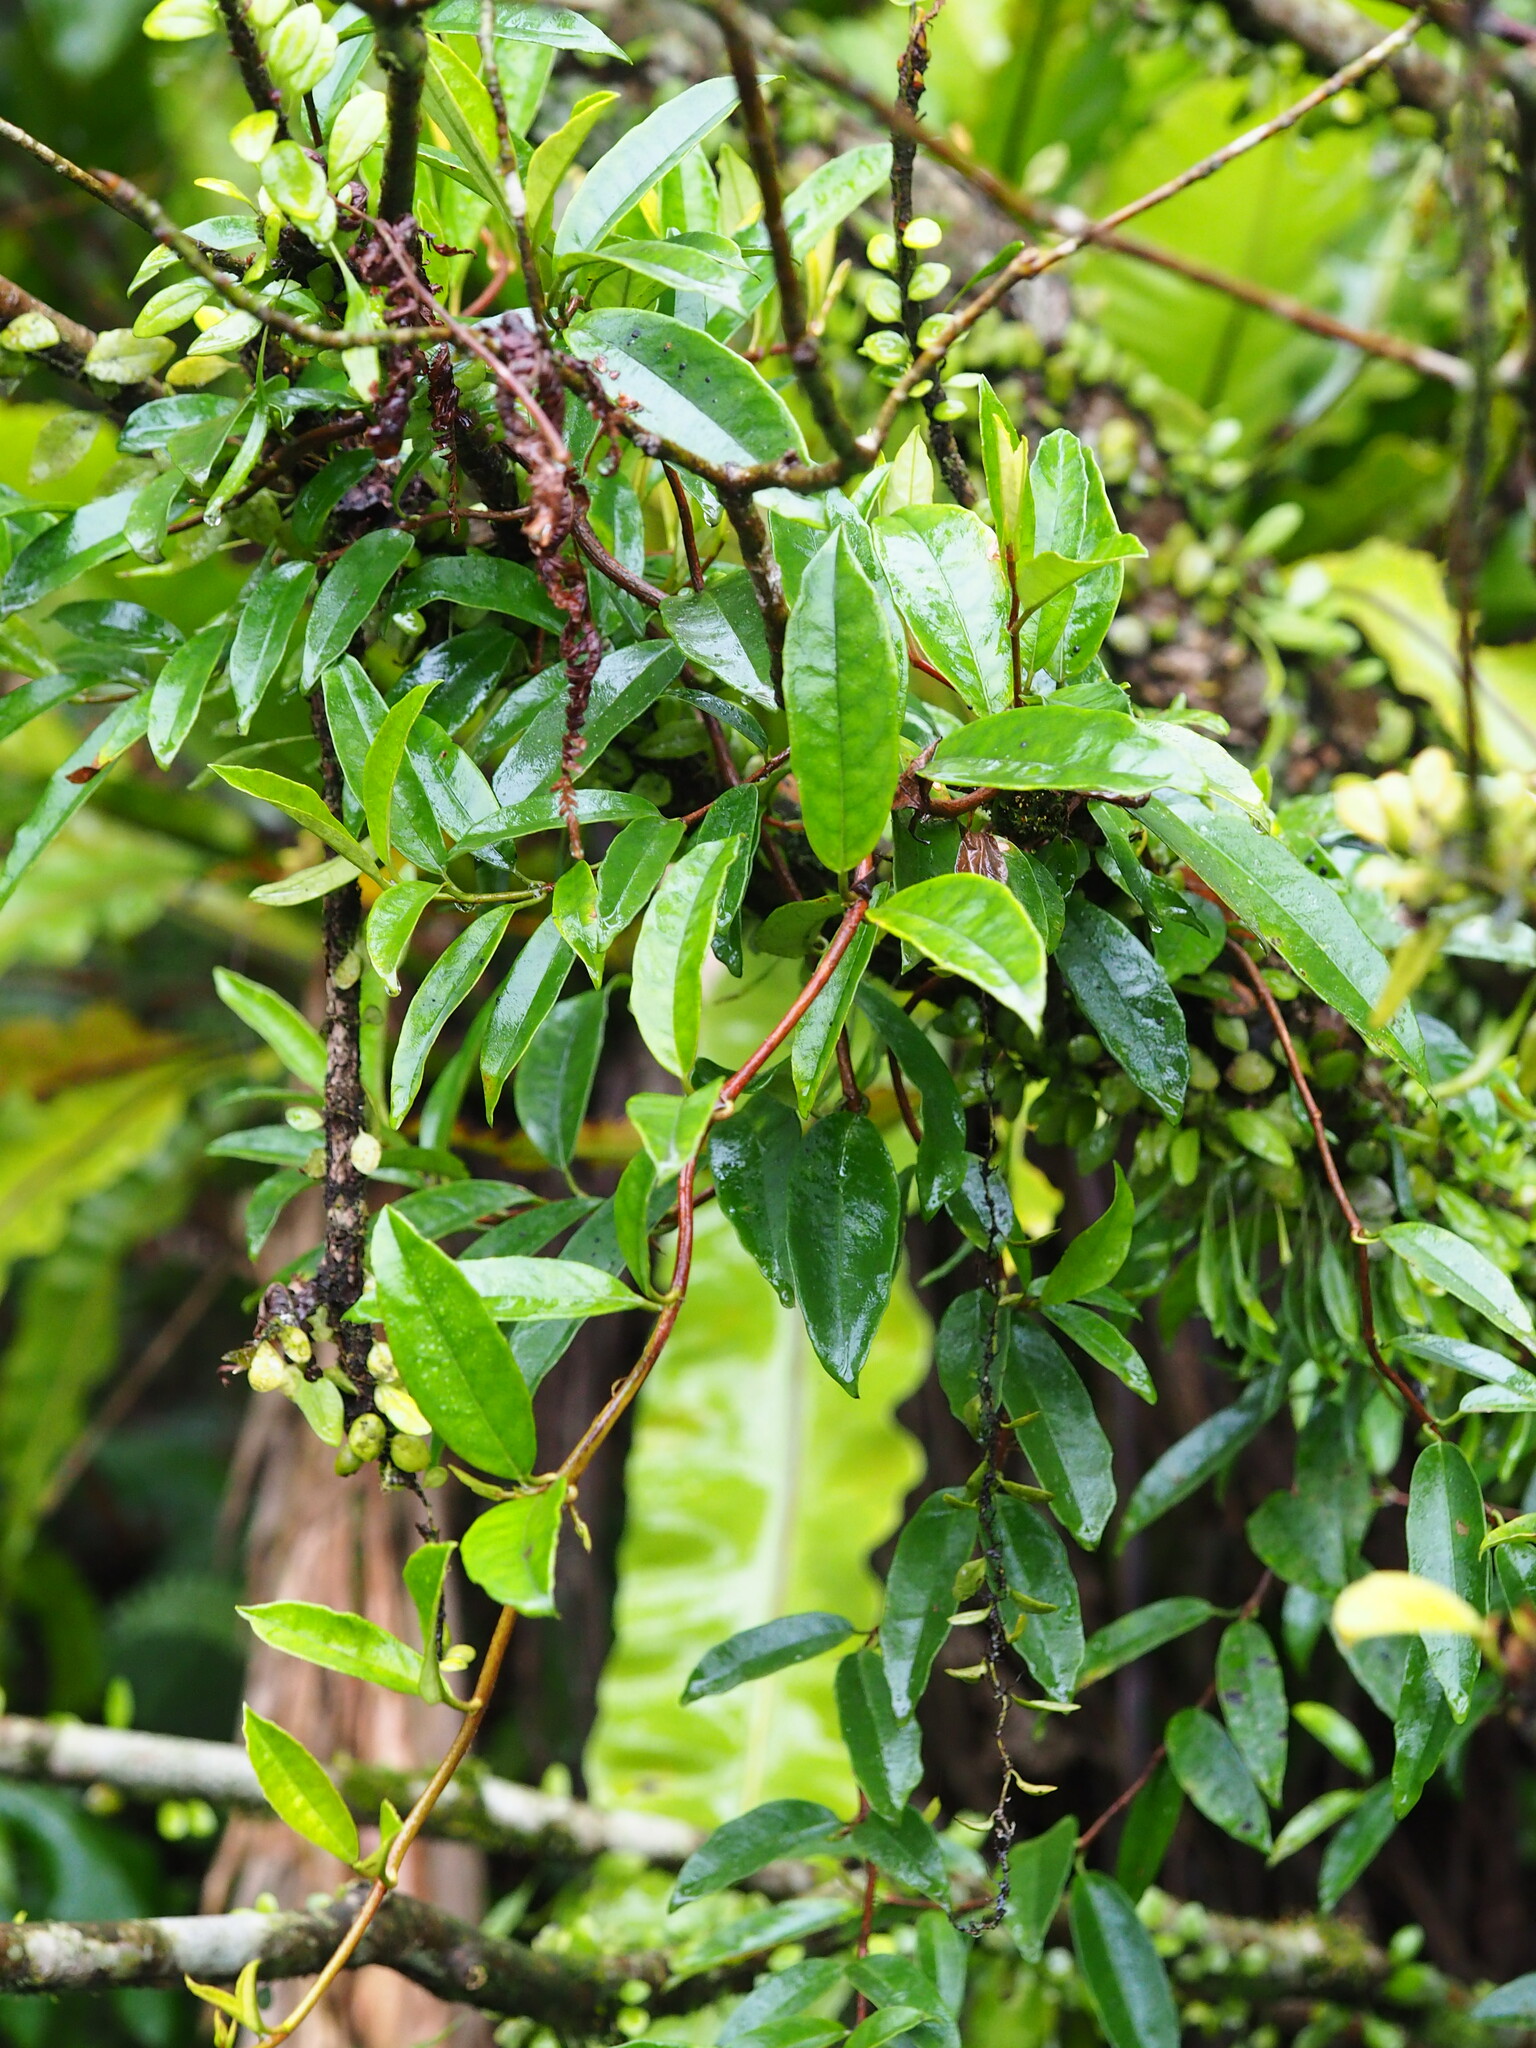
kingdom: Plantae
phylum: Tracheophyta
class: Magnoliopsida
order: Cornales
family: Hydrangeaceae
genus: Hydrangea
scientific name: Hydrangea viburnoides
